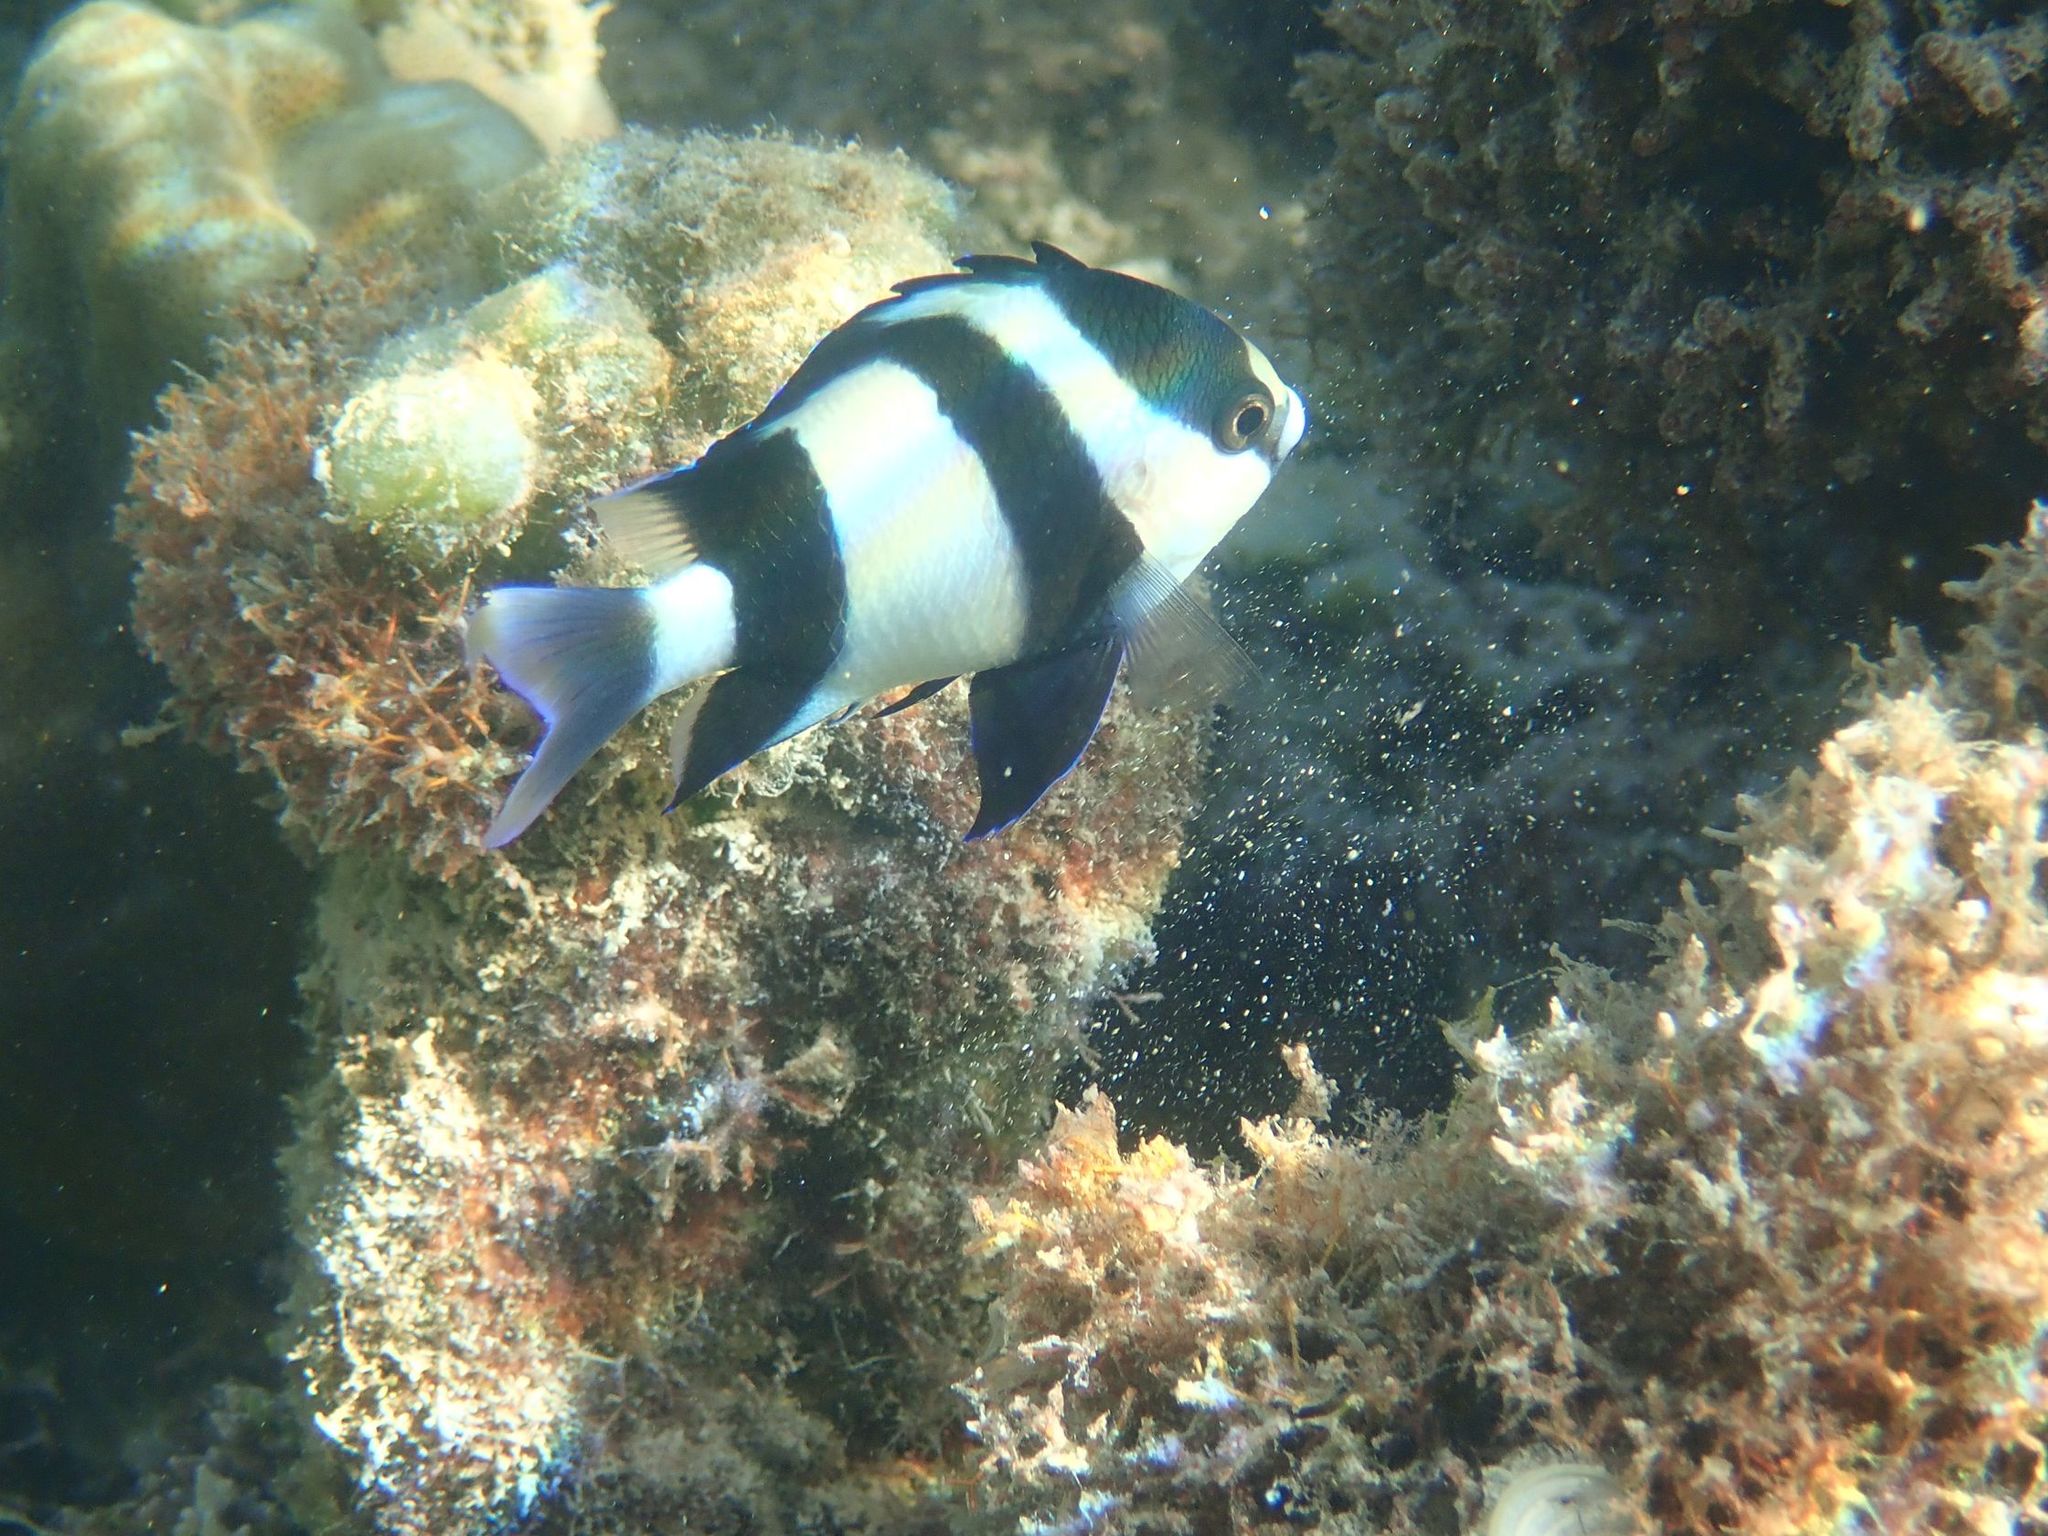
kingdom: Animalia
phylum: Chordata
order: Perciformes
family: Pomacentridae
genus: Dascyllus
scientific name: Dascyllus abudafur
